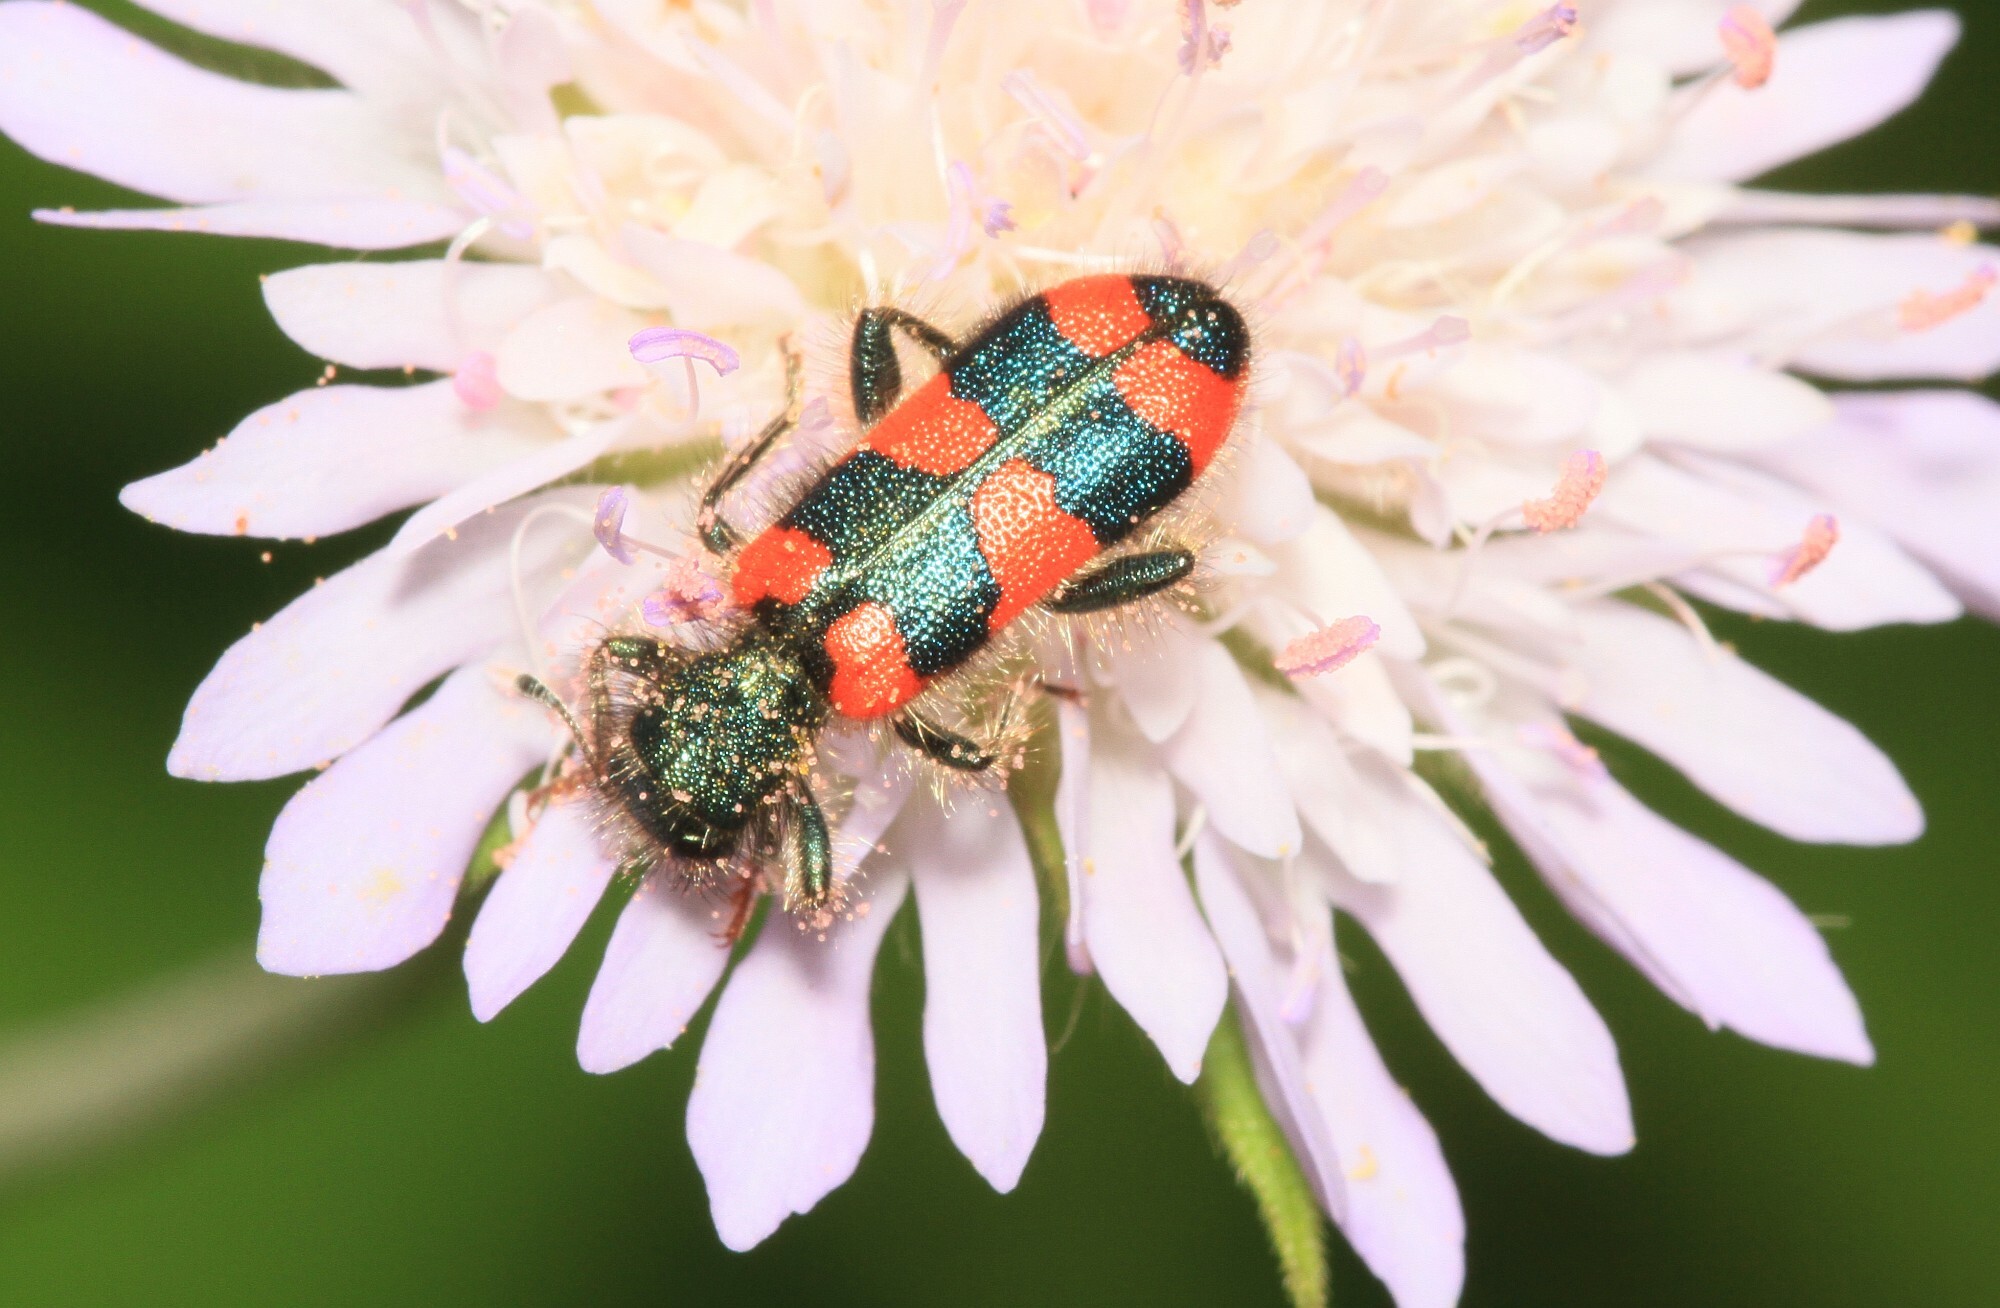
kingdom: Animalia
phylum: Arthropoda
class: Insecta
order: Coleoptera
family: Cleridae
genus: Trichodes
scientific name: Trichodes favarius
